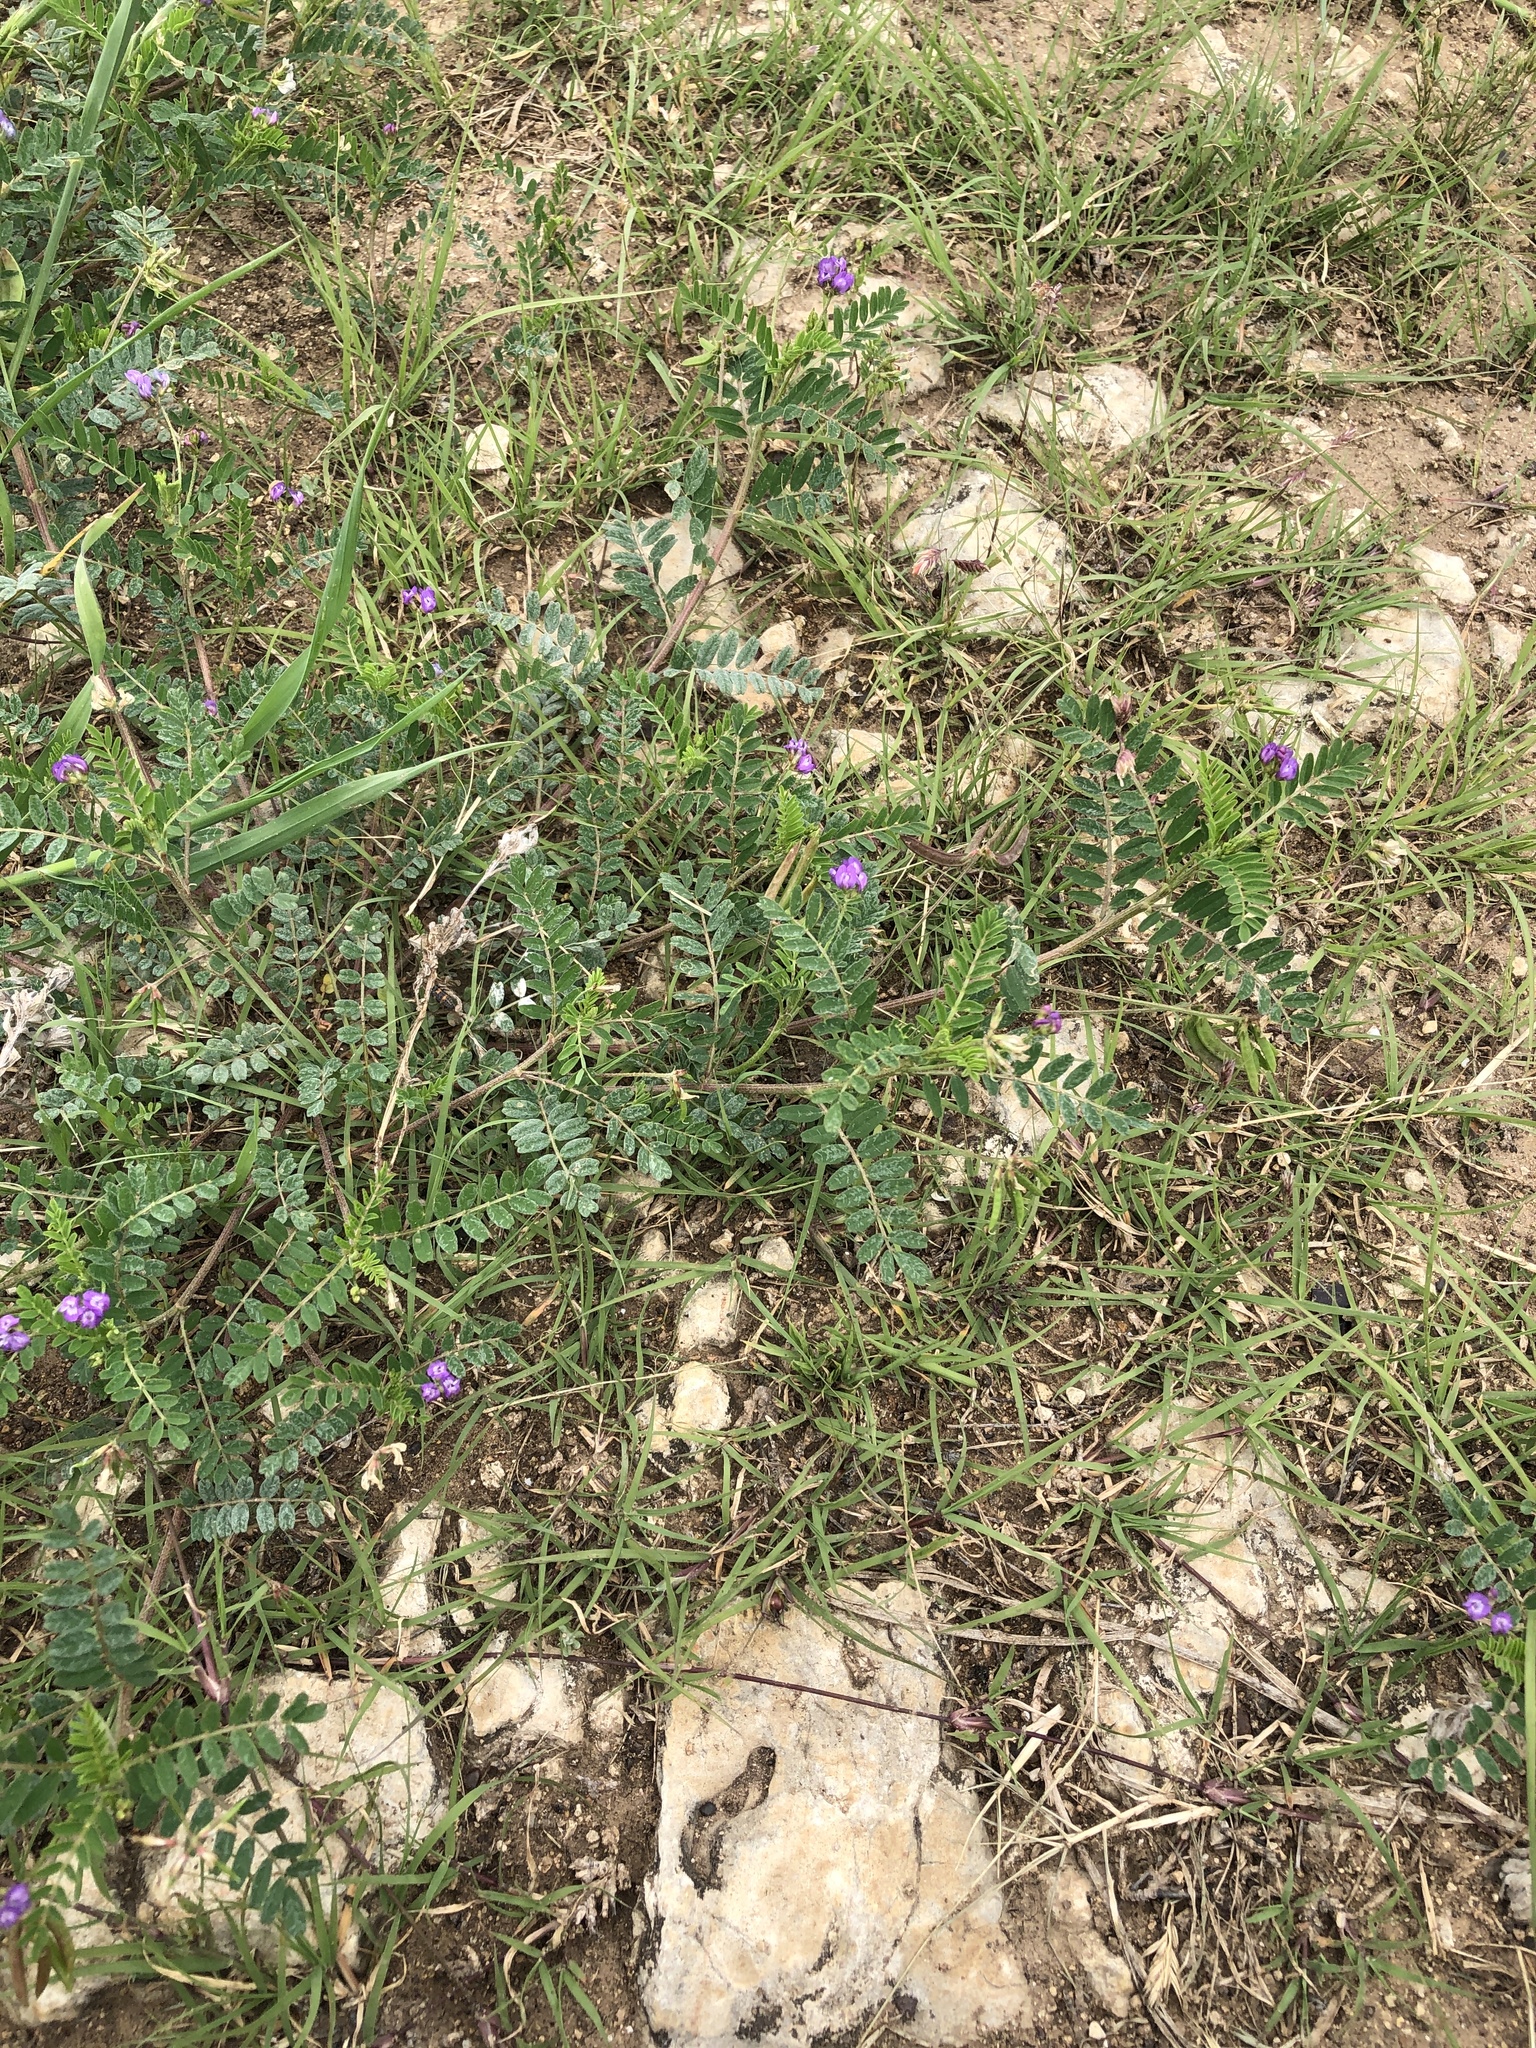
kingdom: Plantae
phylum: Tracheophyta
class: Magnoliopsida
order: Fabales
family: Fabaceae
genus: Astragalus
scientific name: Astragalus nuttallianus
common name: Smallflowered milkvetch
